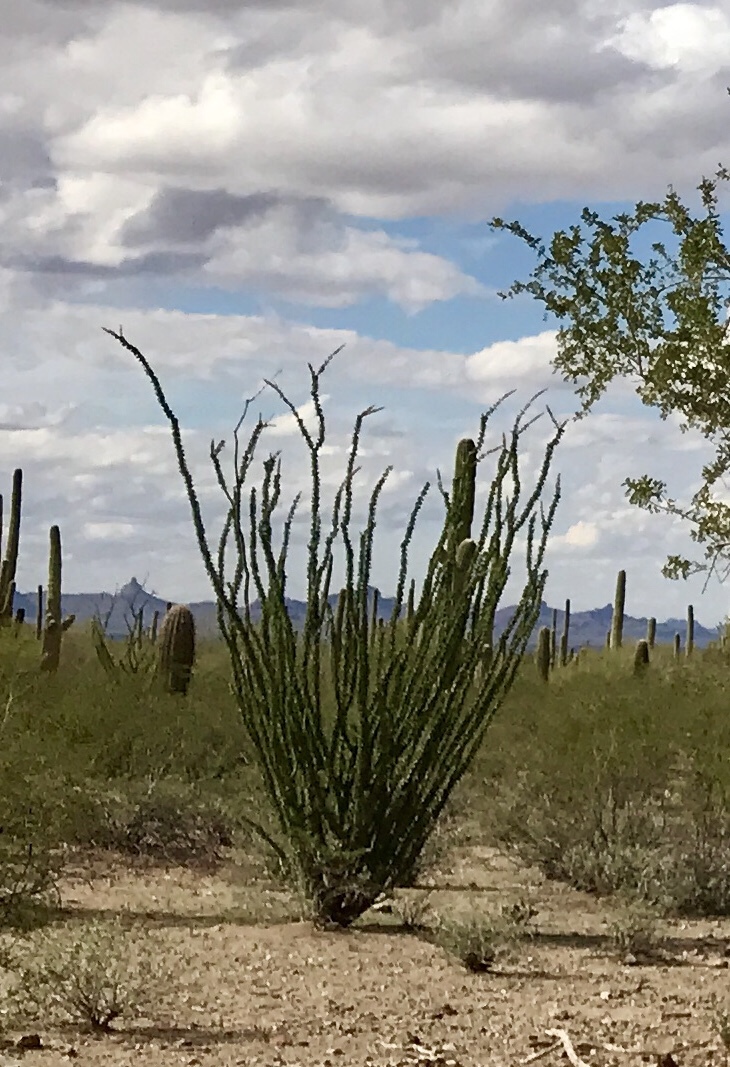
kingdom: Plantae
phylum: Tracheophyta
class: Magnoliopsida
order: Ericales
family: Fouquieriaceae
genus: Fouquieria
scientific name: Fouquieria splendens
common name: Vine-cactus
